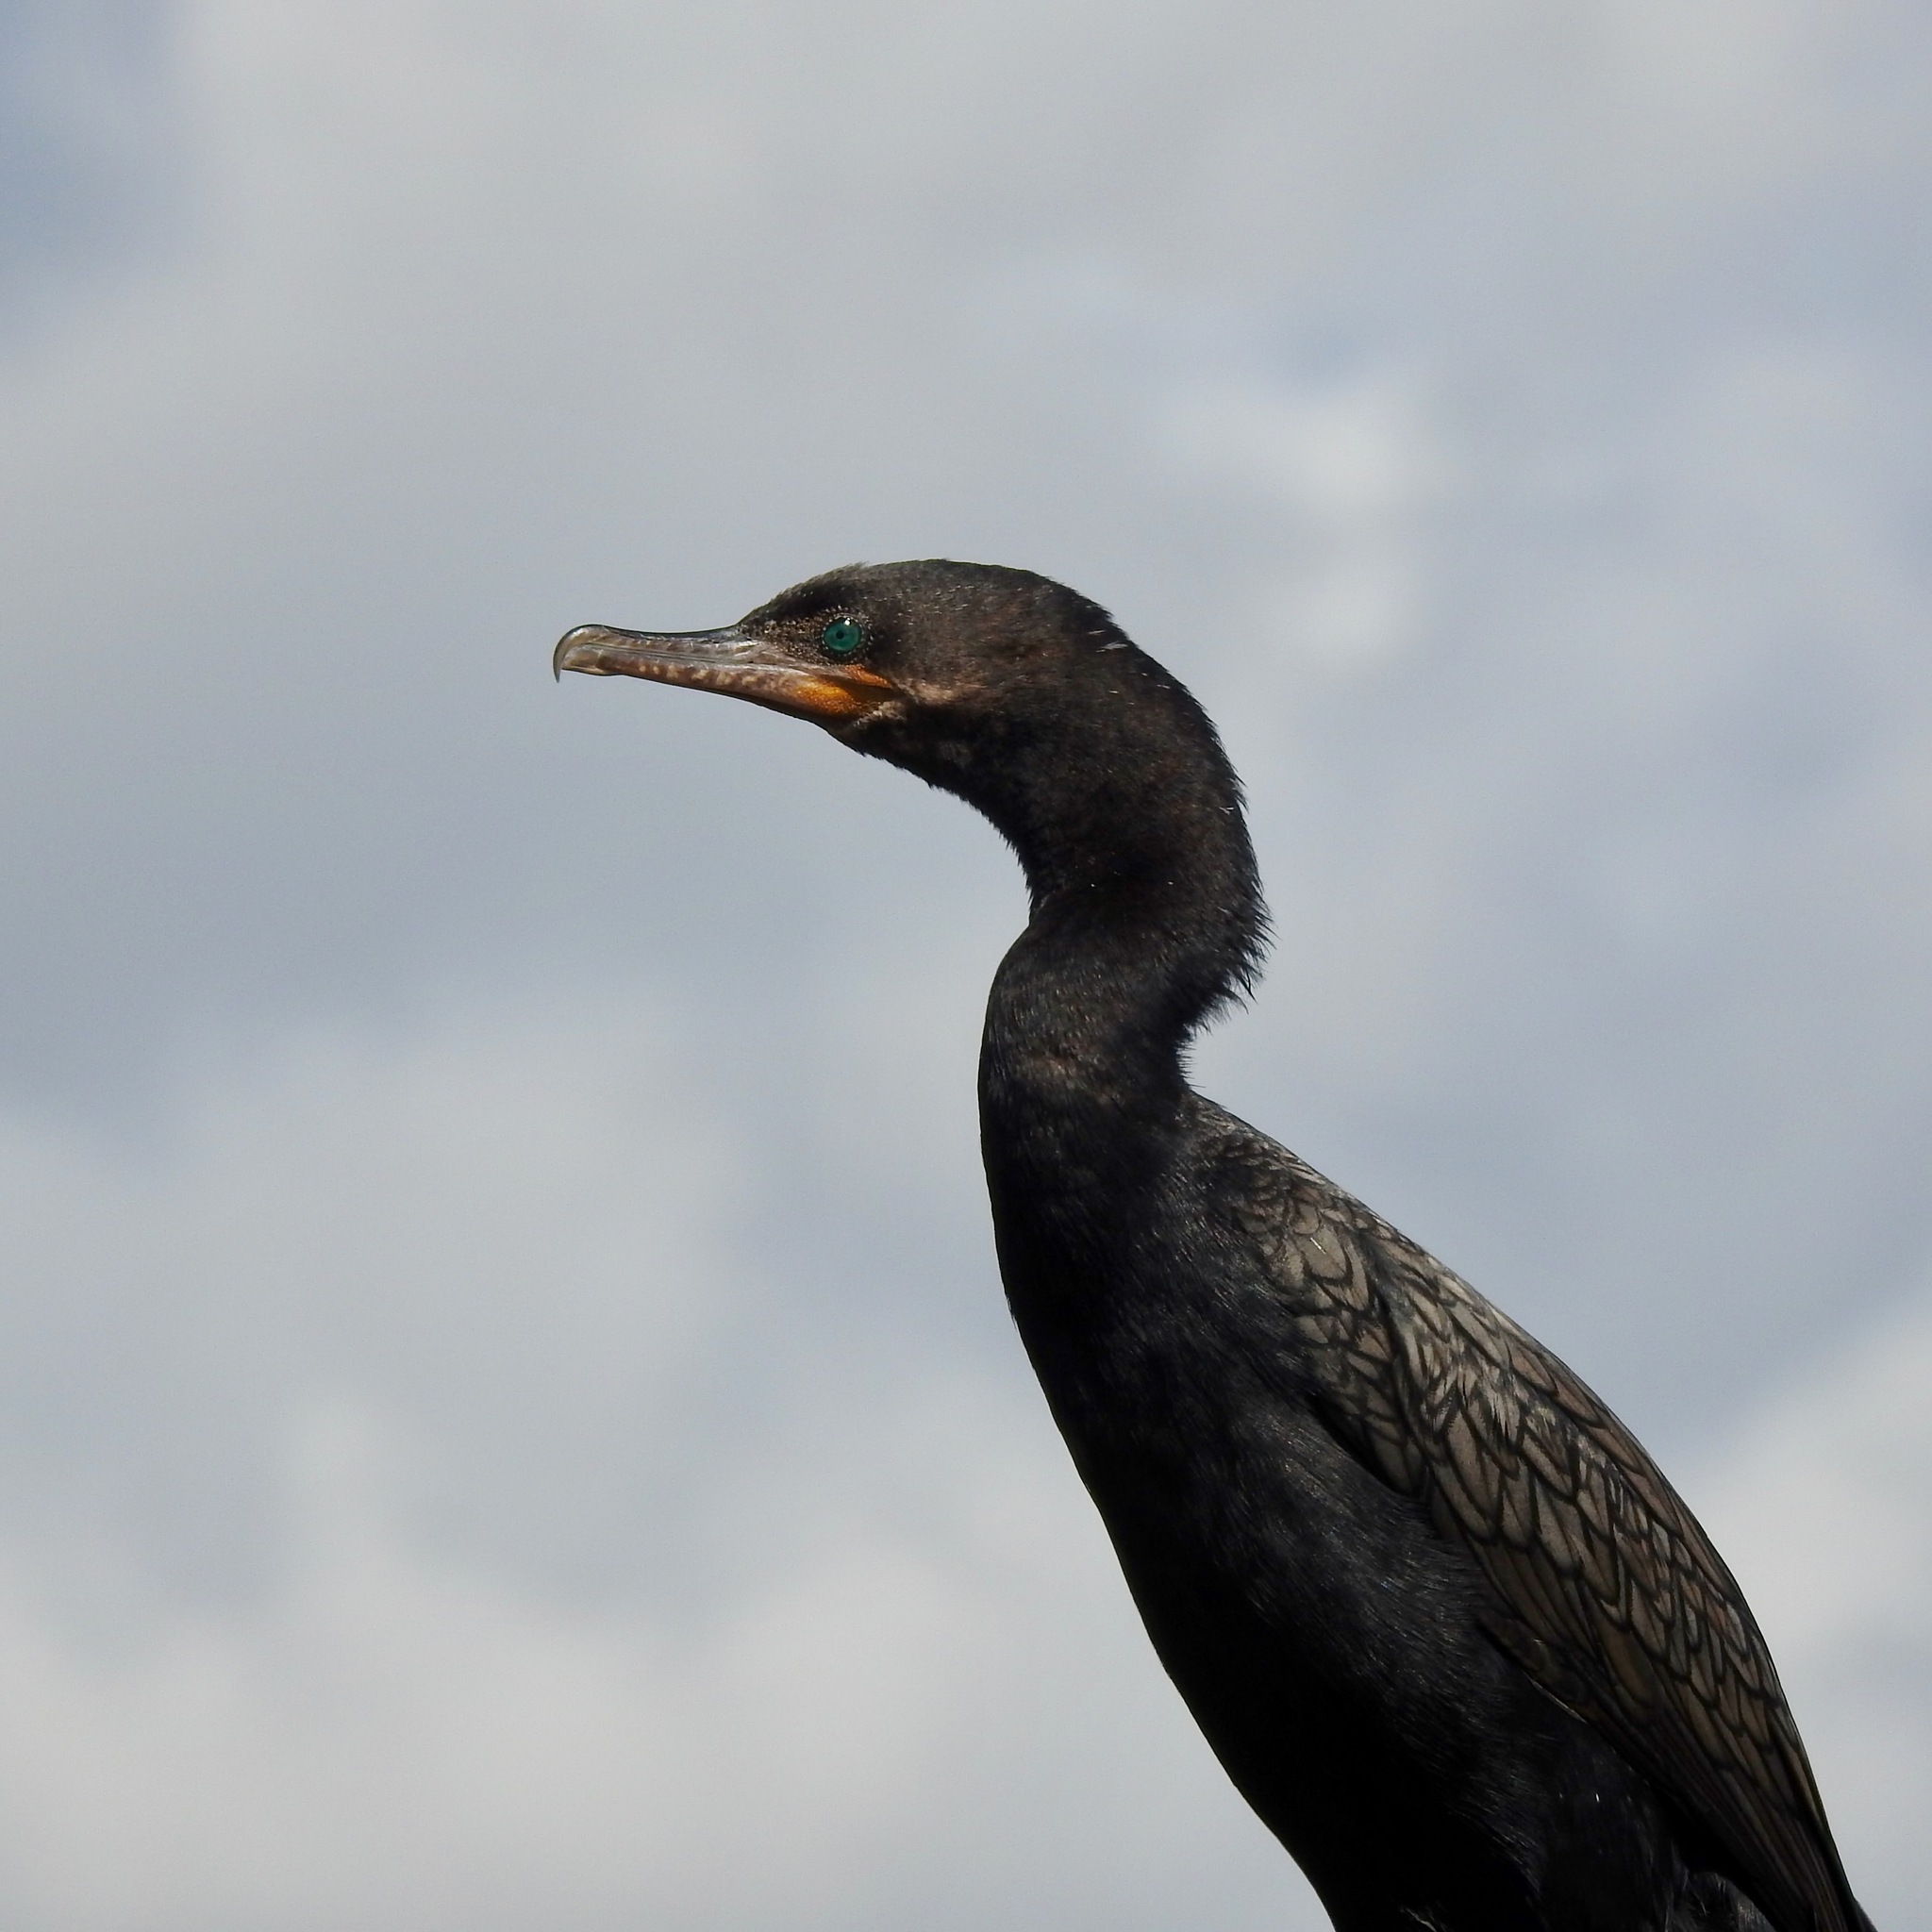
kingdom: Animalia
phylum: Chordata
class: Aves
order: Suliformes
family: Phalacrocoracidae
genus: Phalacrocorax
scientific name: Phalacrocorax brasilianus
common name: Neotropic cormorant
